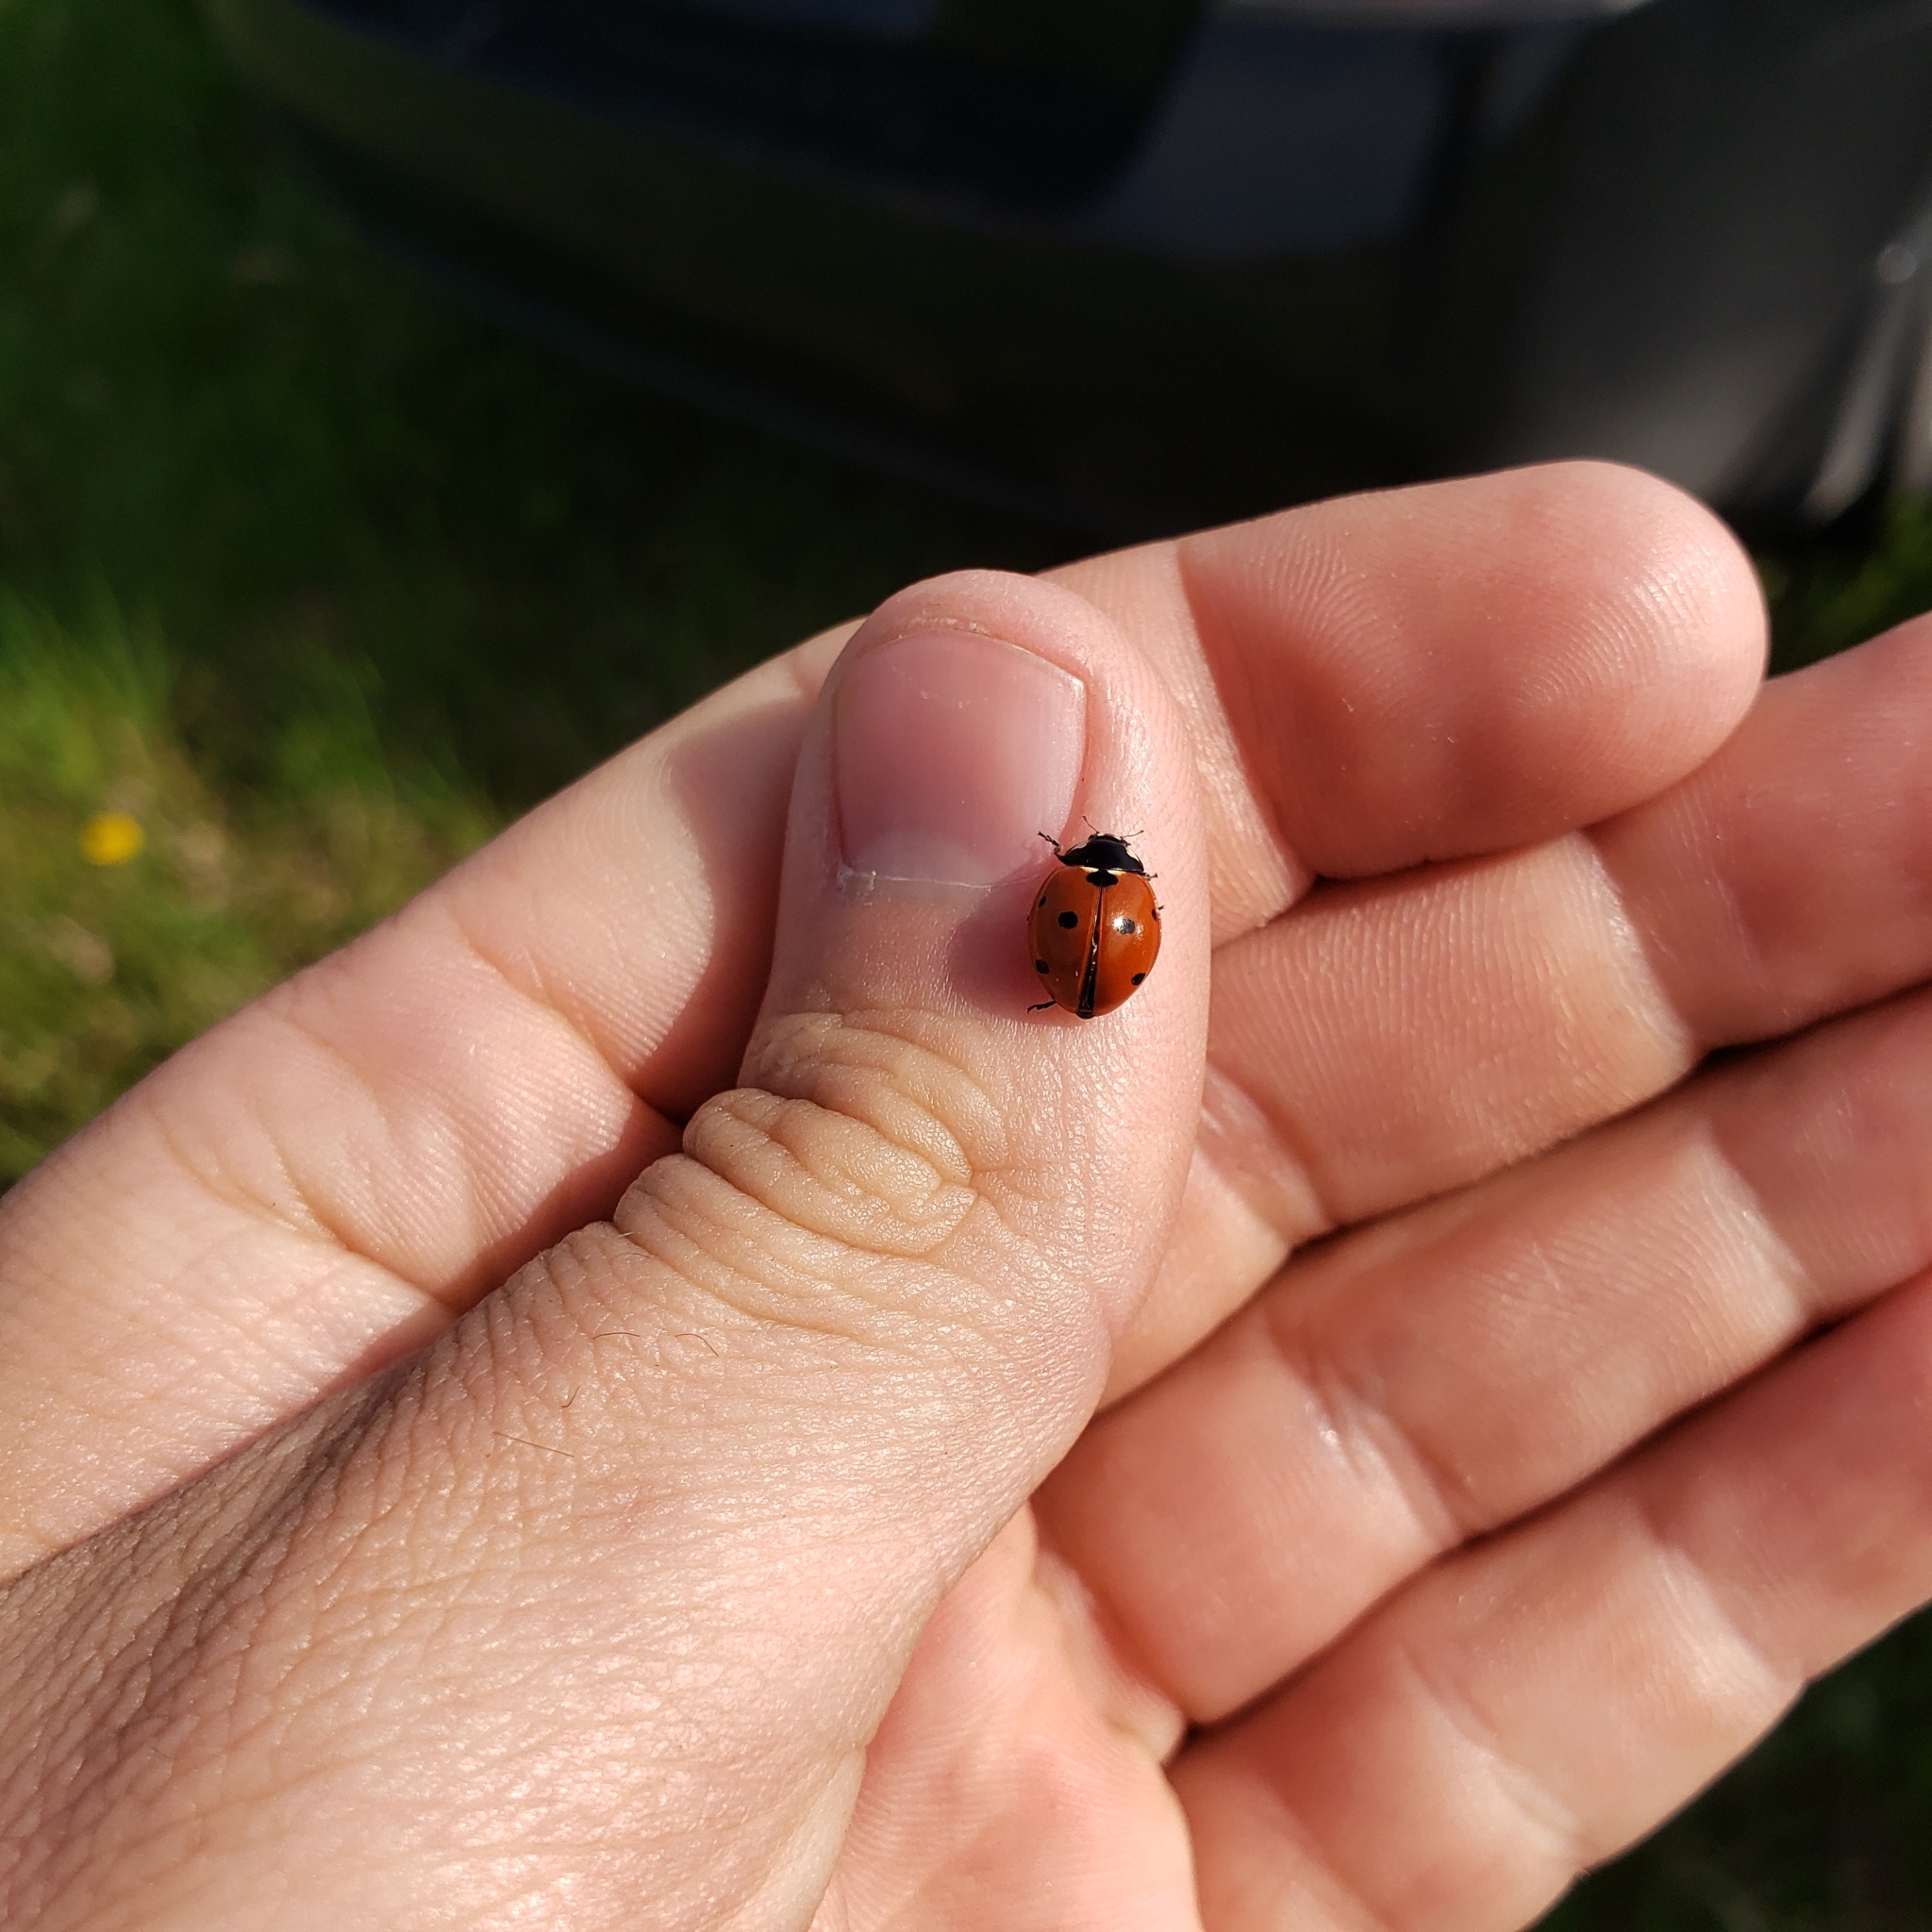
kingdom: Animalia
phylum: Arthropoda
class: Insecta
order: Coleoptera
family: Coccinellidae
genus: Coccinella
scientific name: Coccinella septempunctata
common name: Sevenspotted lady beetle
